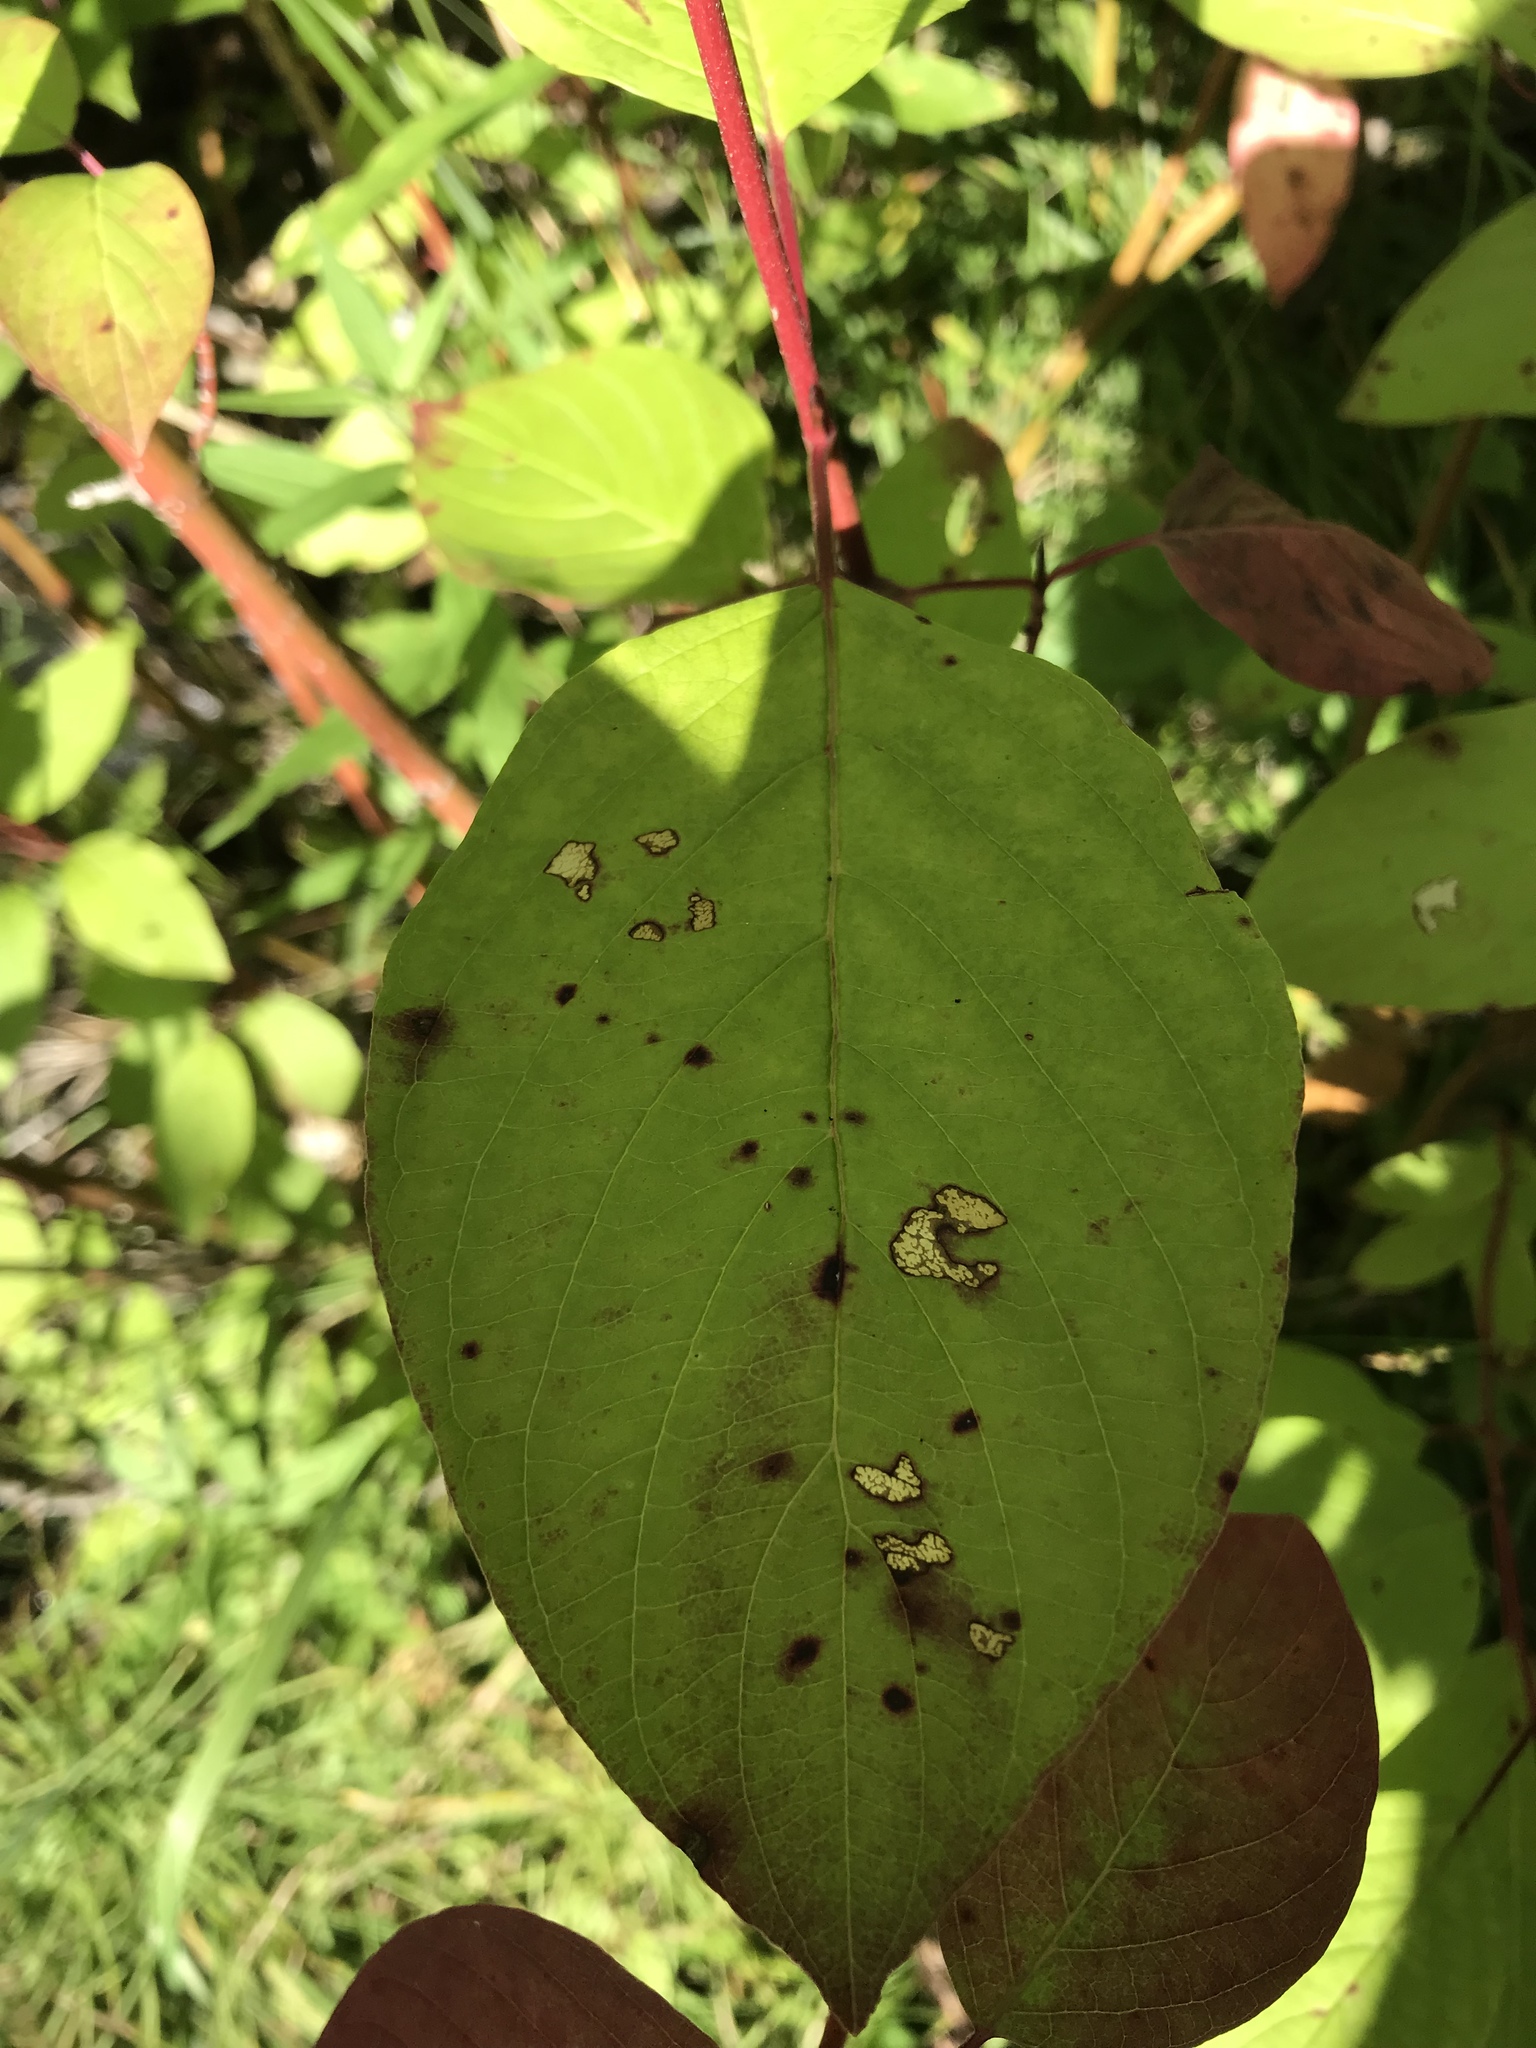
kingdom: Plantae
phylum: Tracheophyta
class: Magnoliopsida
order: Cornales
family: Cornaceae
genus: Cornus
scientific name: Cornus sericea
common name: Red-osier dogwood
